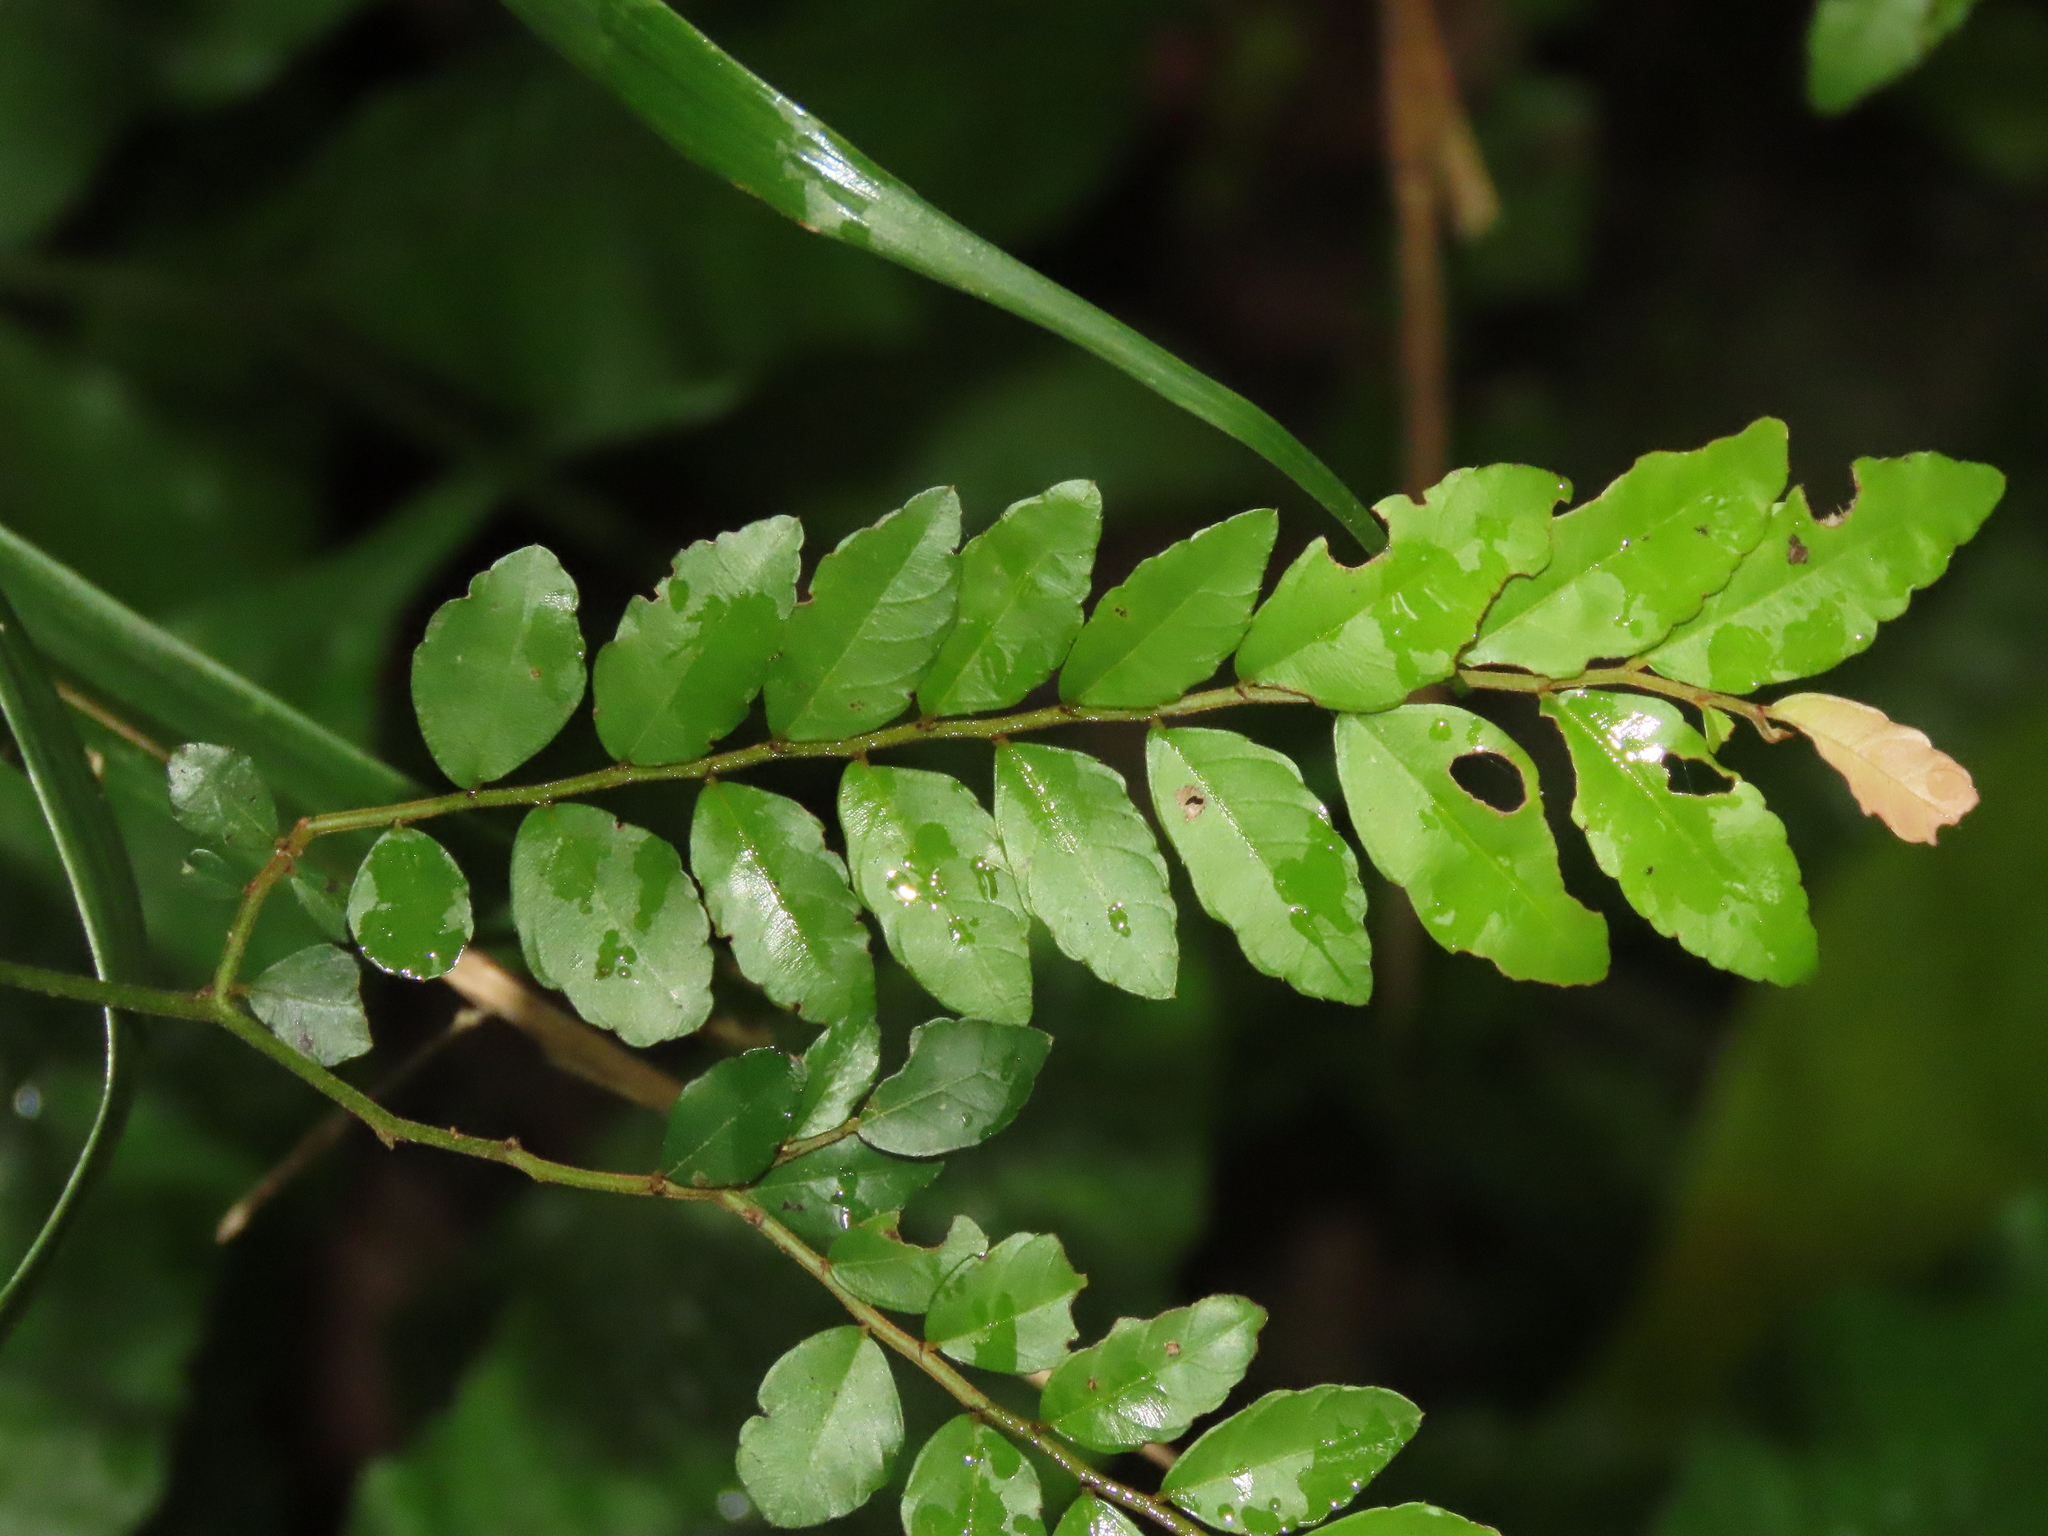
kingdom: Plantae
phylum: Tracheophyta
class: Magnoliopsida
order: Rosales
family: Rhamnaceae
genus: Ventilago
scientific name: Ventilago elegans
